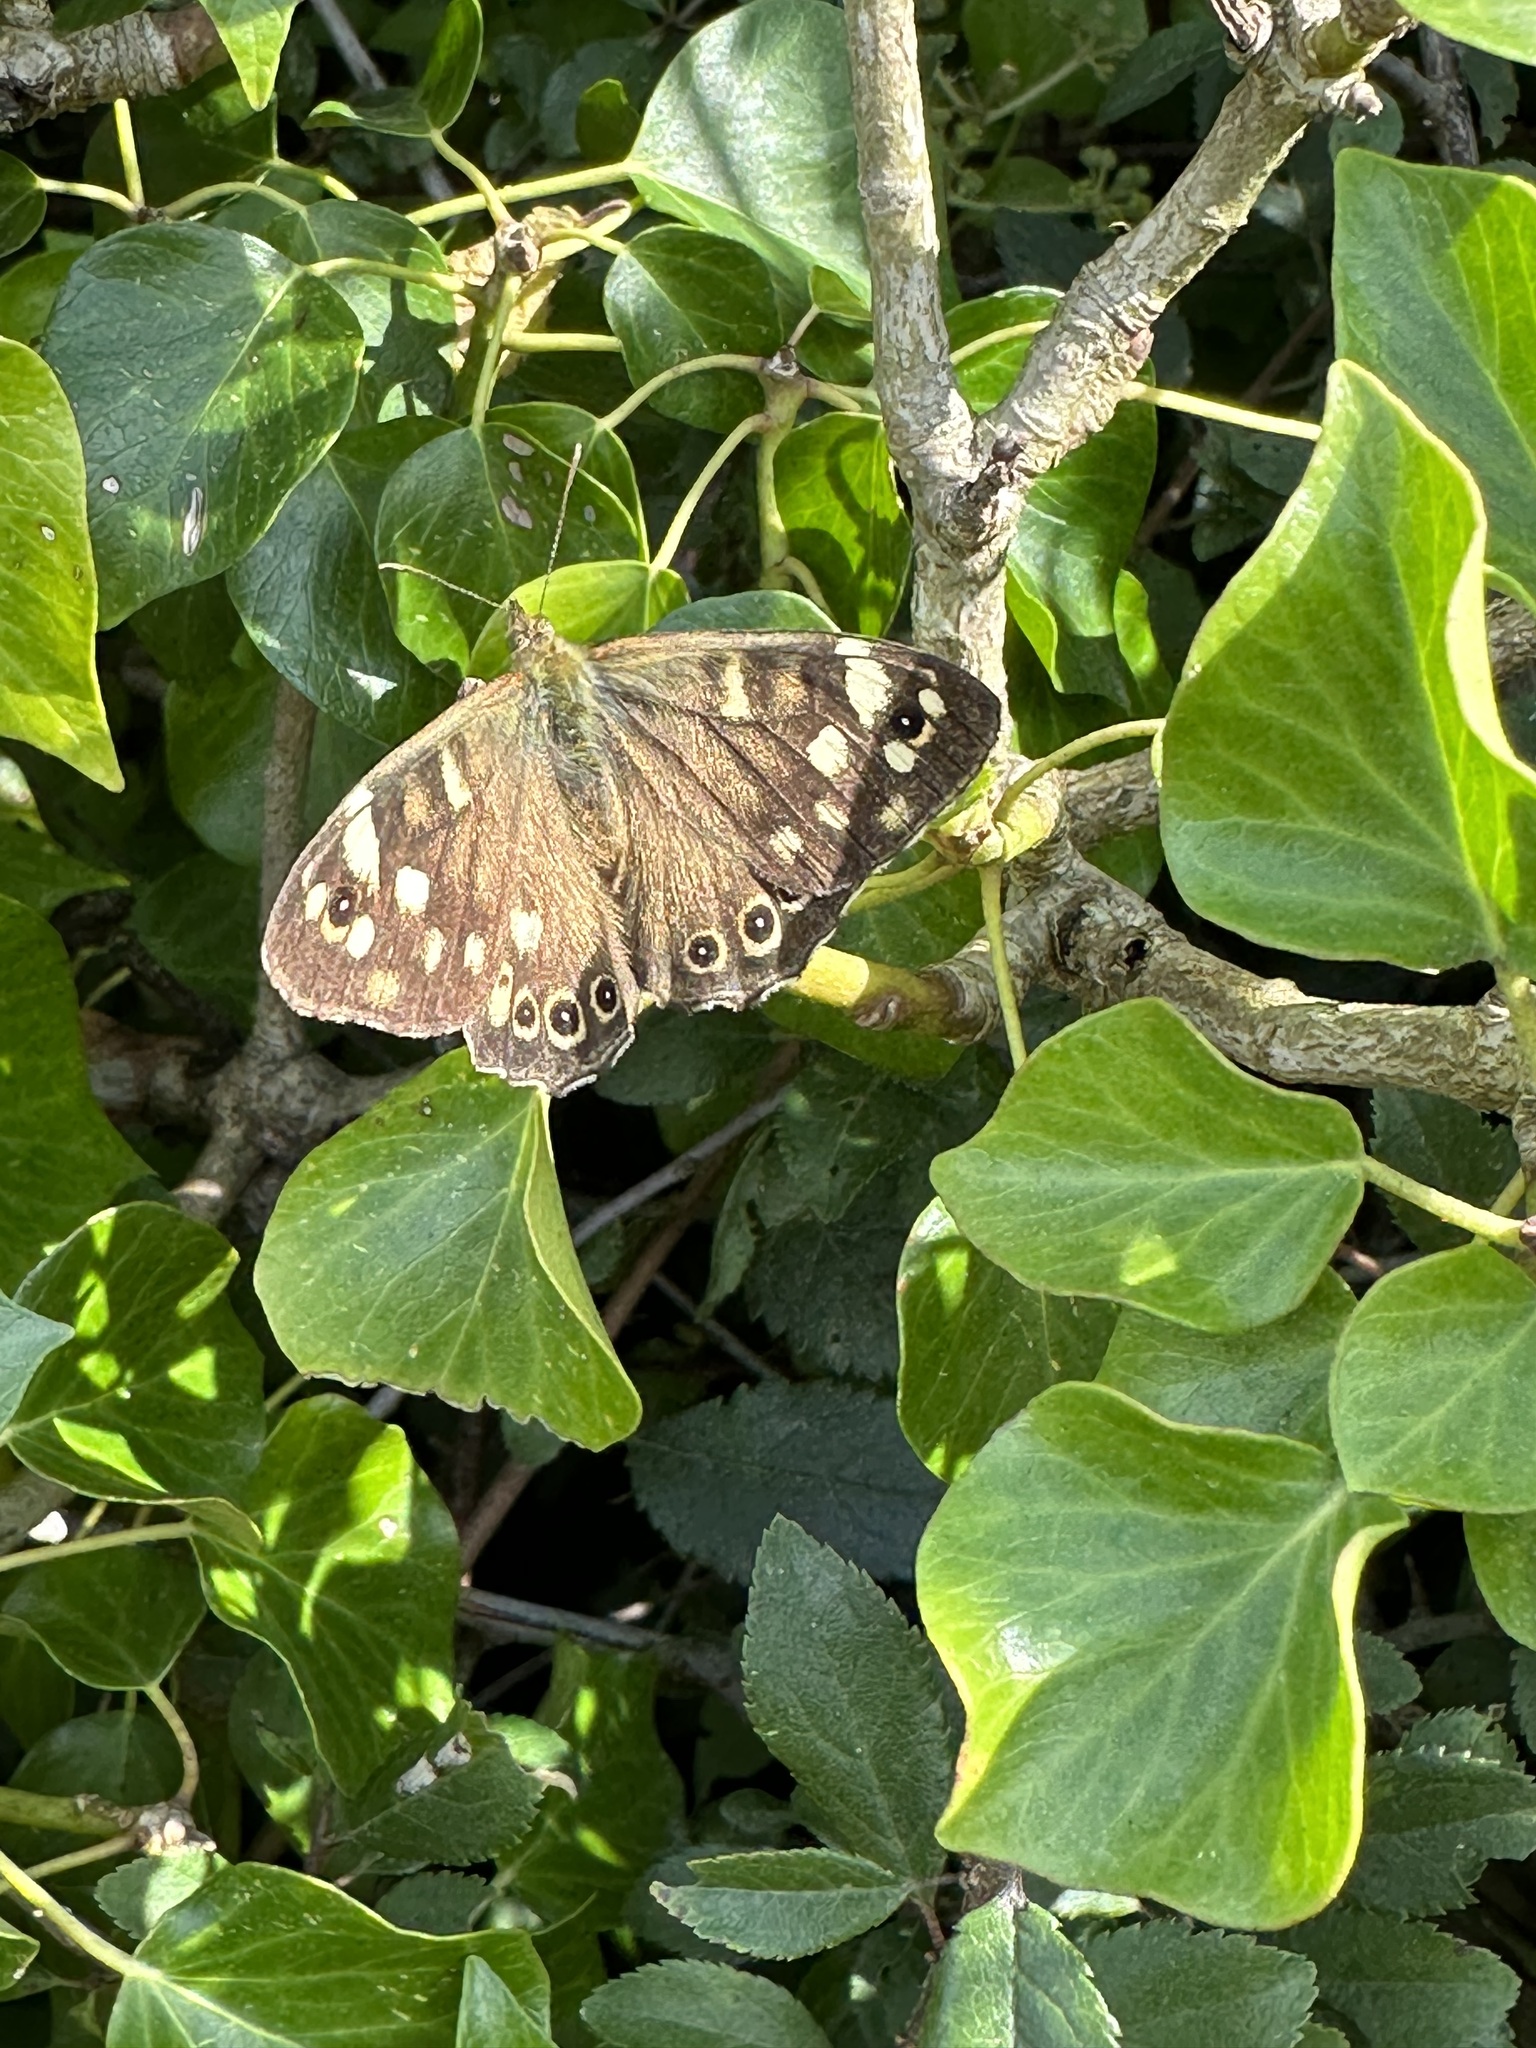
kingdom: Animalia
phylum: Arthropoda
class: Insecta
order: Lepidoptera
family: Nymphalidae
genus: Pararge
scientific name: Pararge aegeria
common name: Speckled wood
